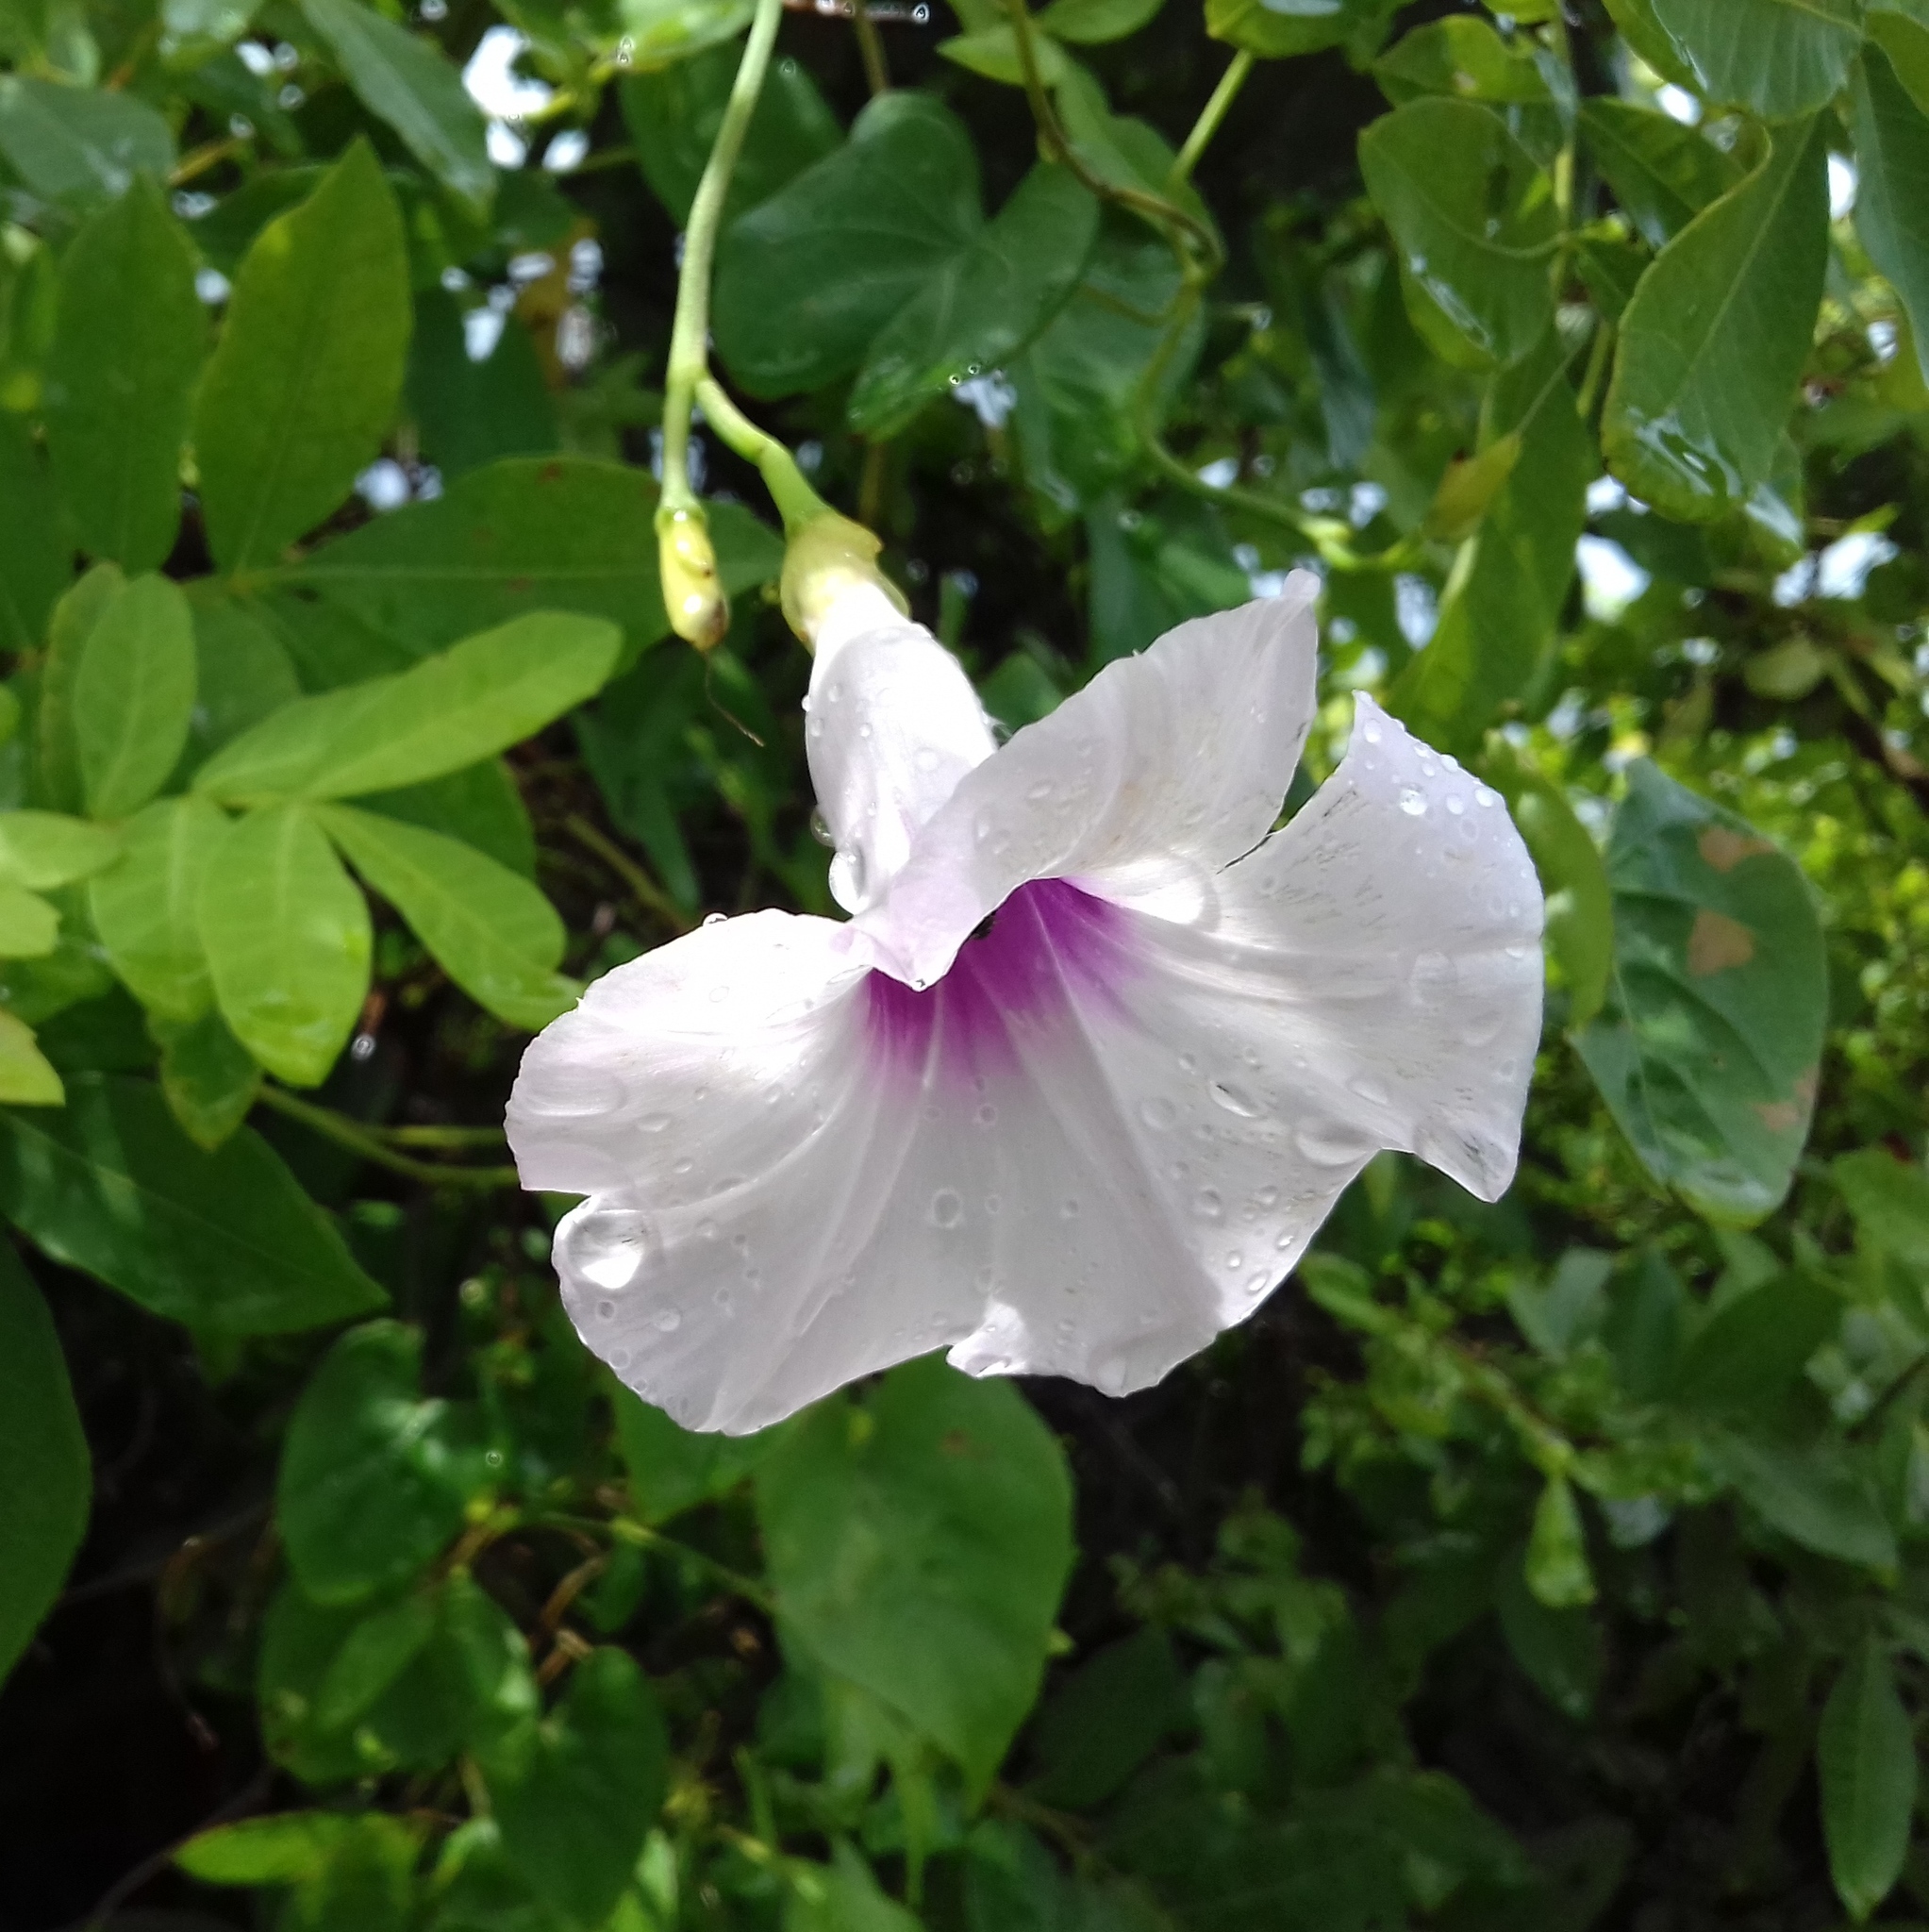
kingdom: Plantae
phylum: Tracheophyta
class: Magnoliopsida
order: Solanales
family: Convolvulaceae
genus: Ipomoea
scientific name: Ipomoea tiliacea
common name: Wild potato vine
